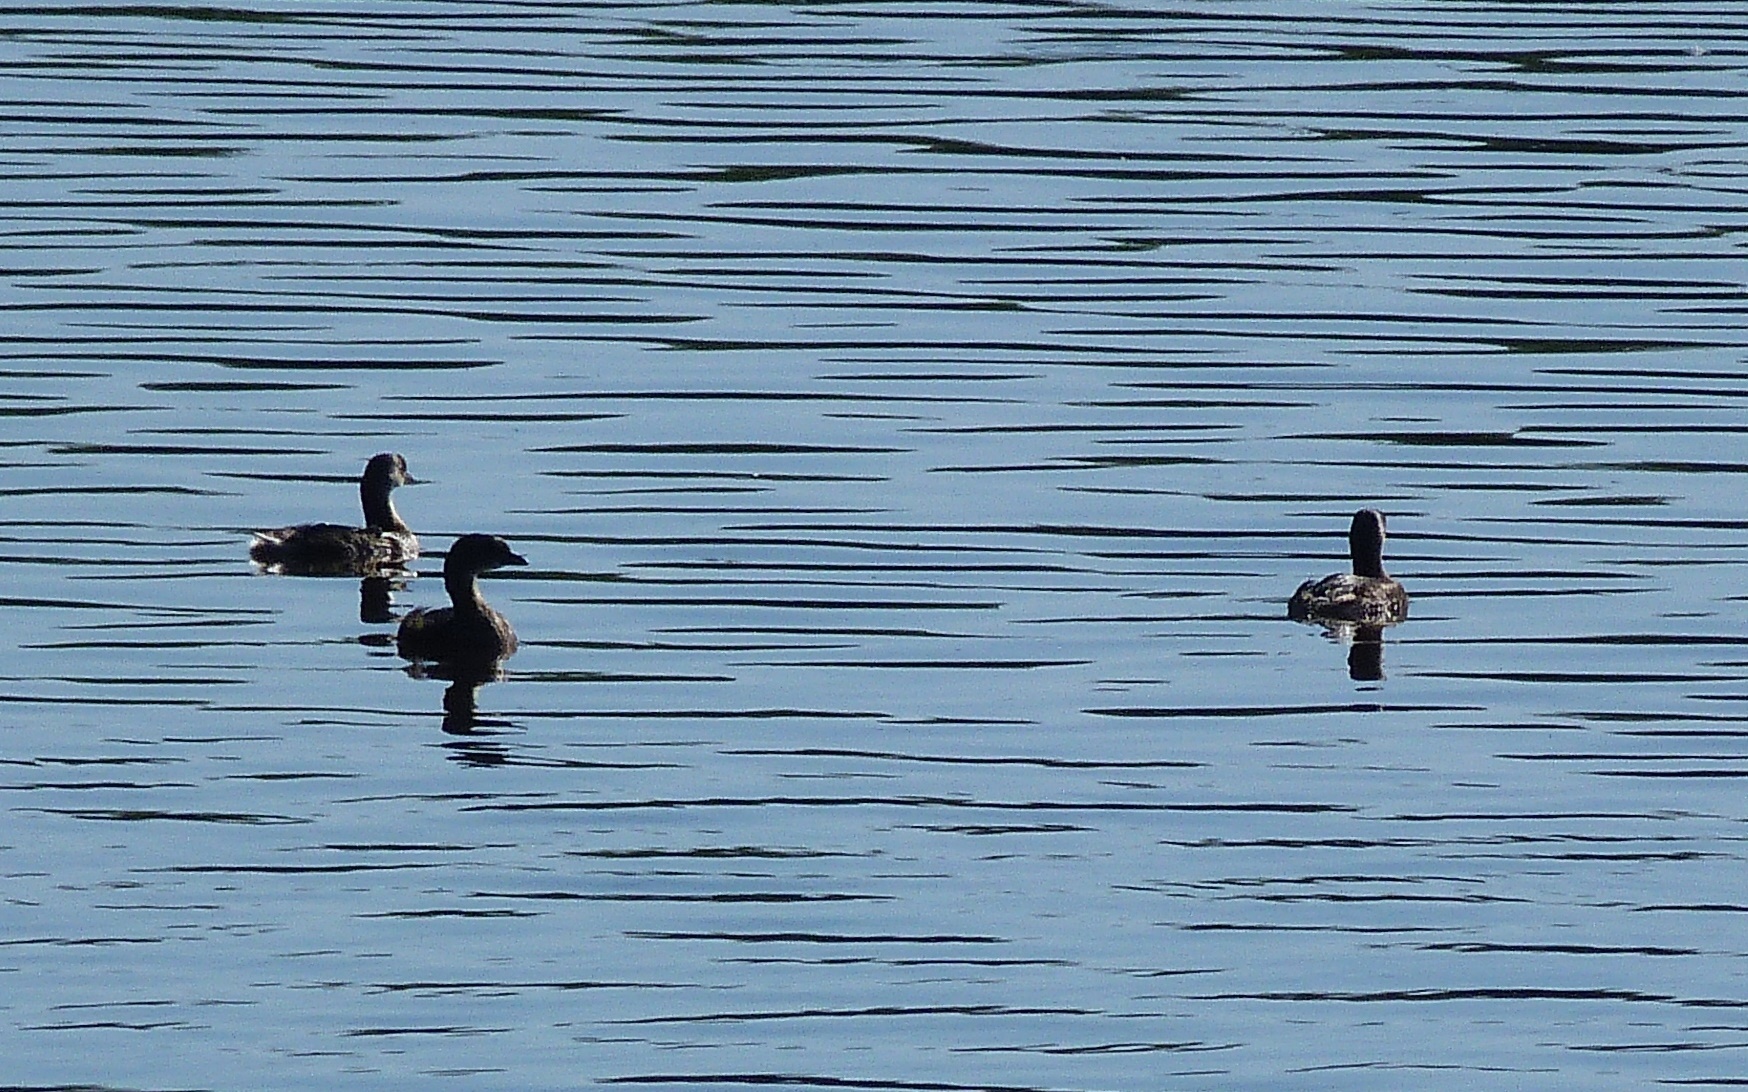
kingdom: Animalia
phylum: Chordata
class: Aves
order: Podicipediformes
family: Podicipedidae
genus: Podilymbus
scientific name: Podilymbus podiceps
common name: Pied-billed grebe
